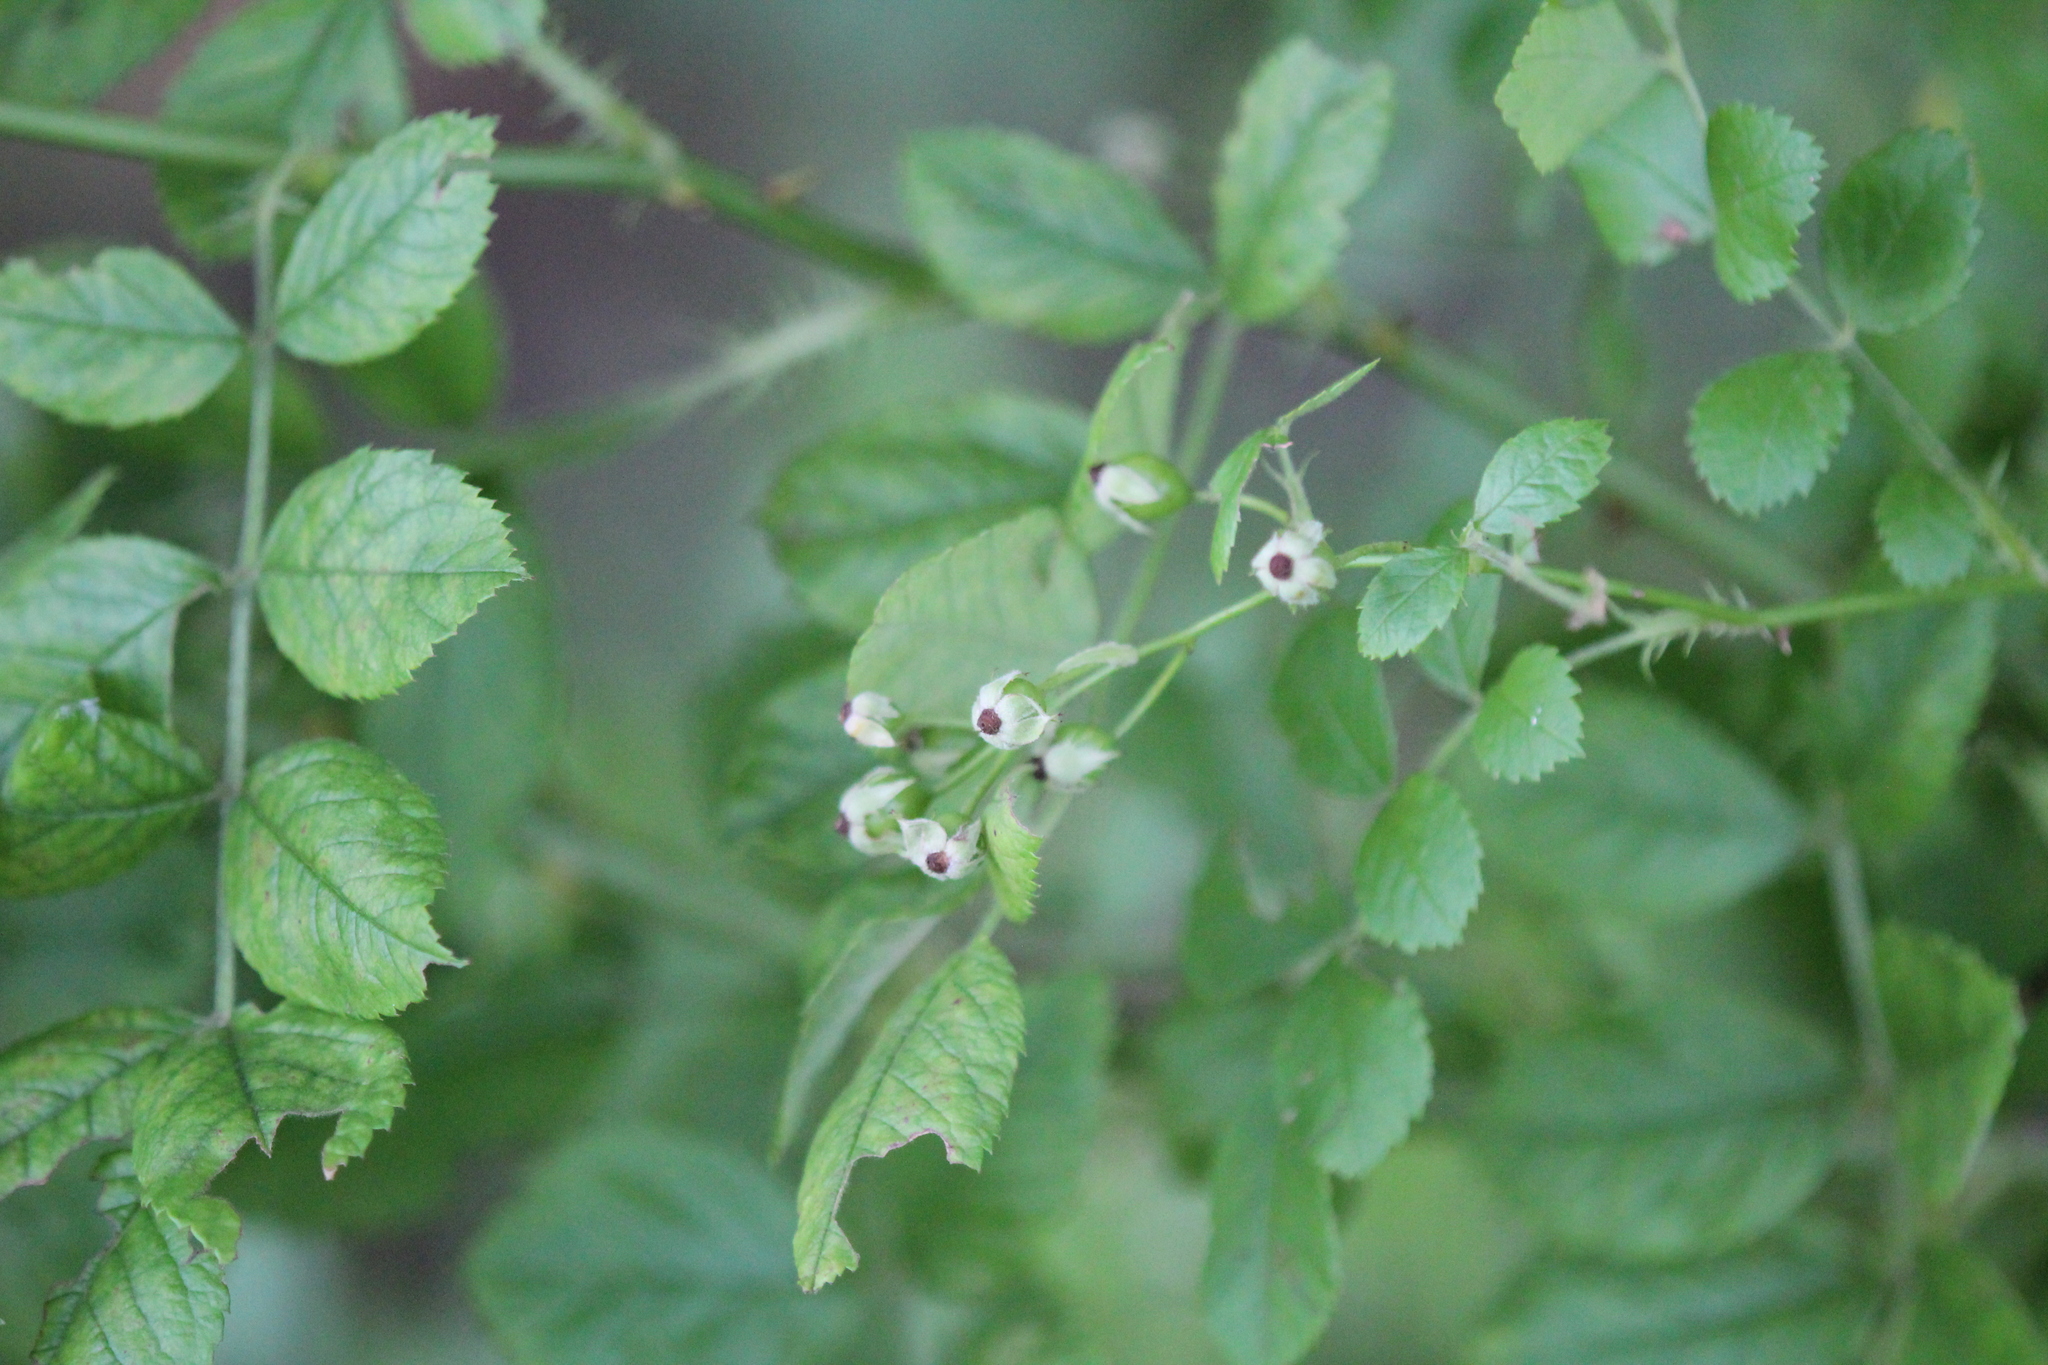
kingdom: Plantae
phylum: Tracheophyta
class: Magnoliopsida
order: Rosales
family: Rosaceae
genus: Rosa
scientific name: Rosa multiflora
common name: Multiflora rose
